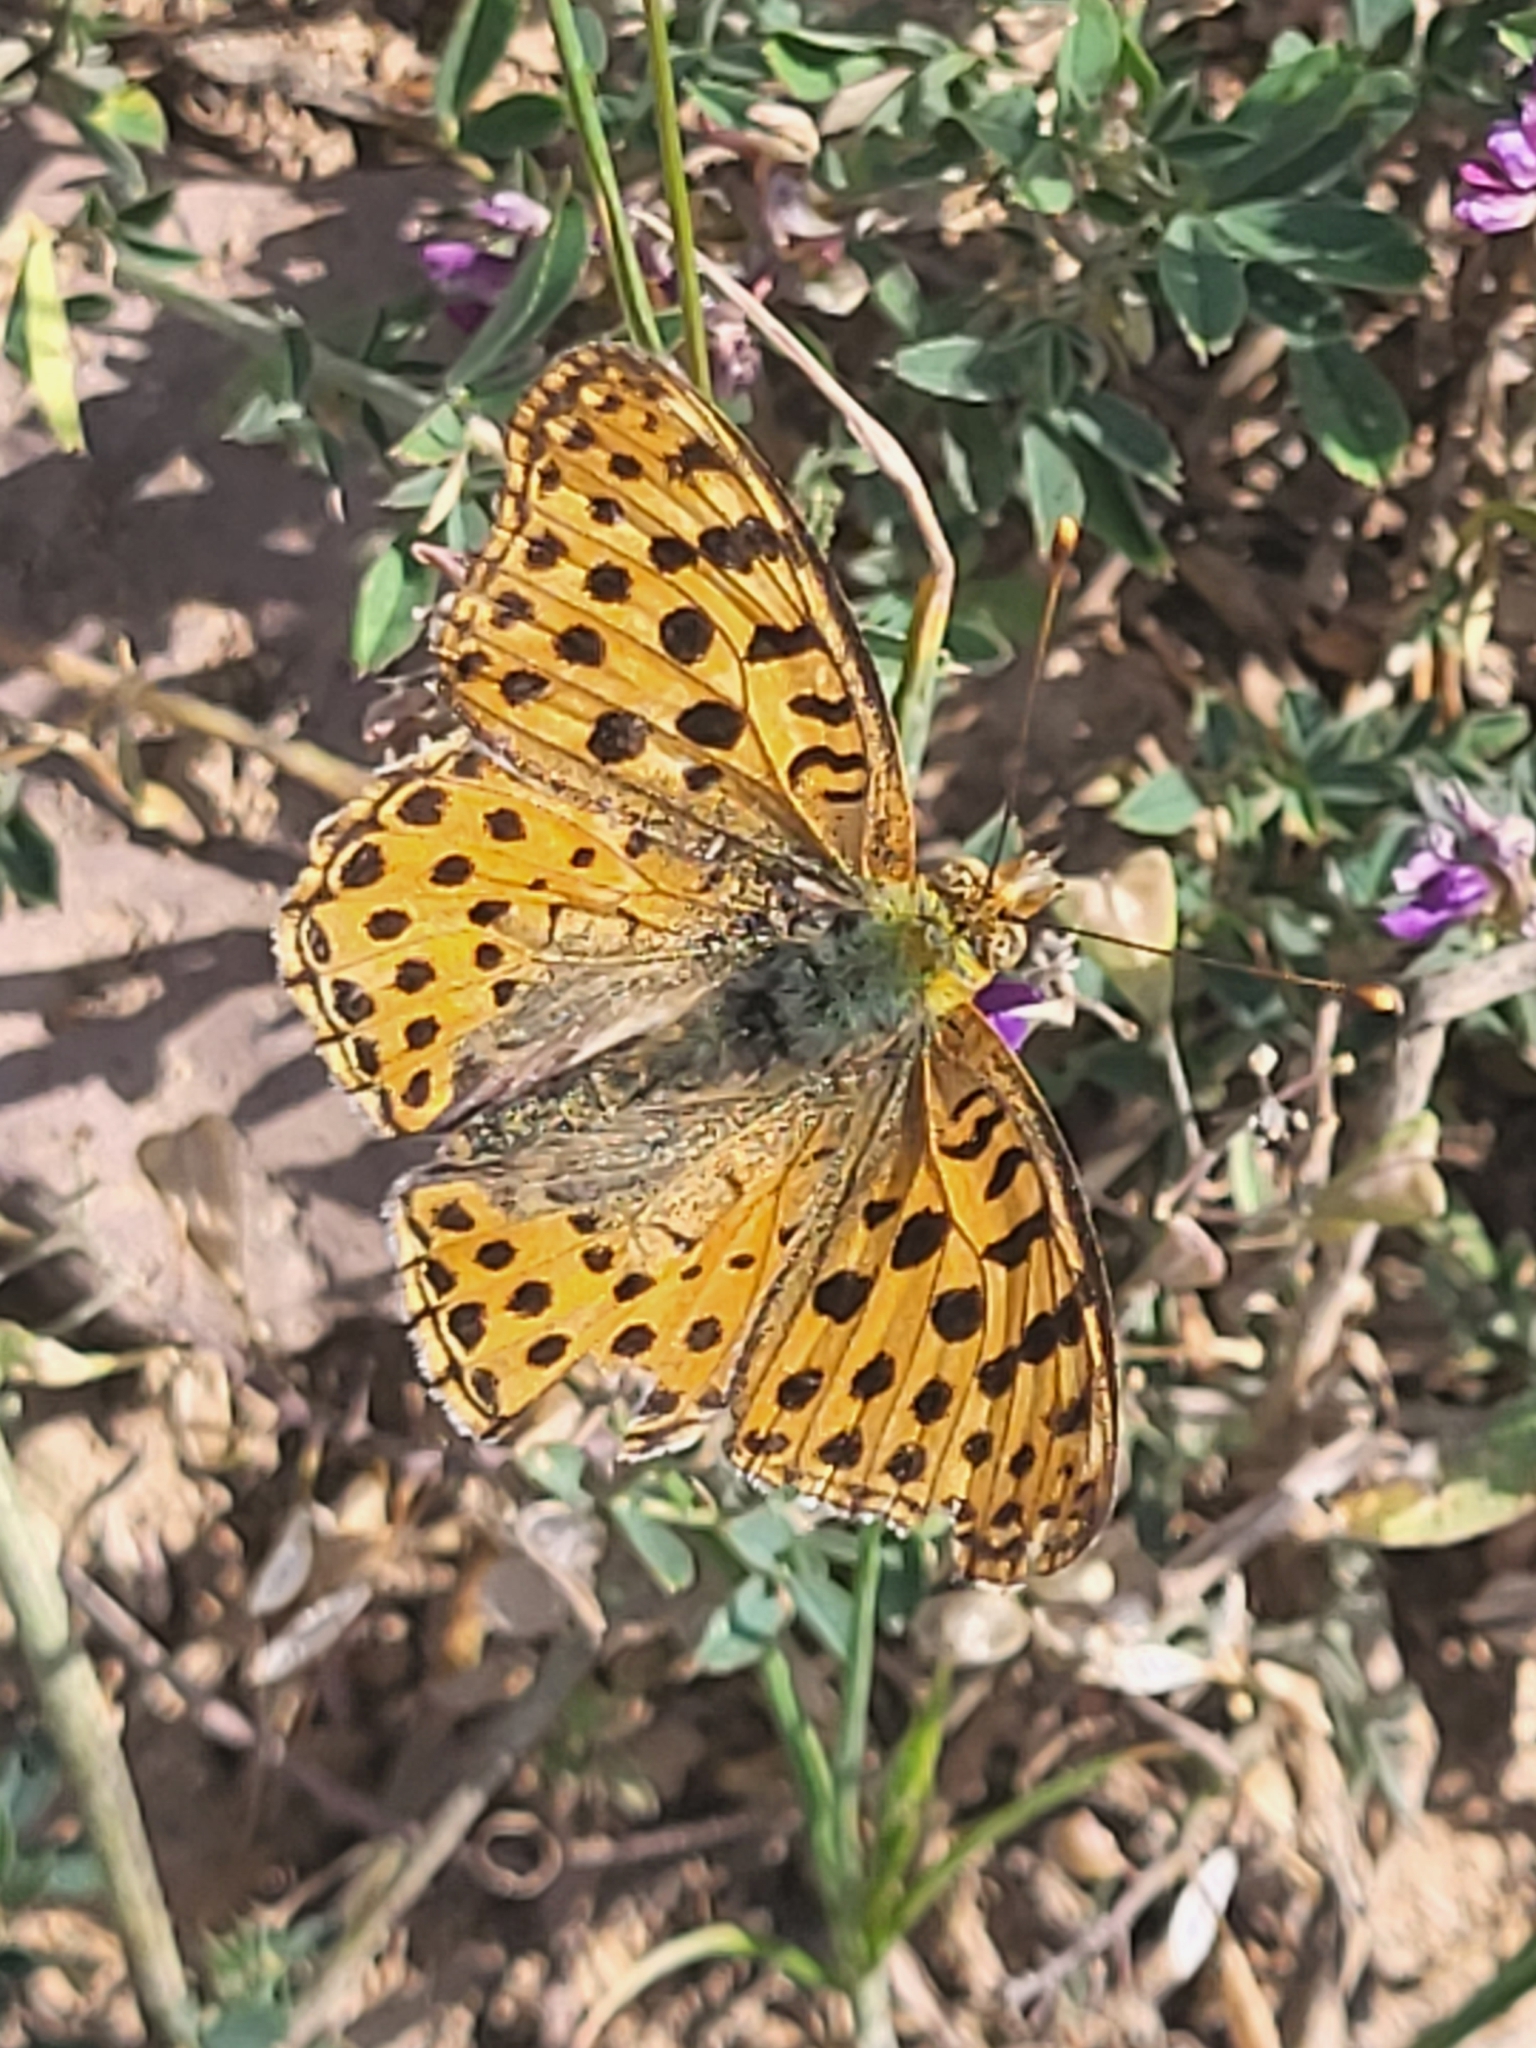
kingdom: Animalia
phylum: Arthropoda
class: Insecta
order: Lepidoptera
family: Nymphalidae
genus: Issoria
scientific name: Issoria lathonia
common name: Queen of spain fritillary
